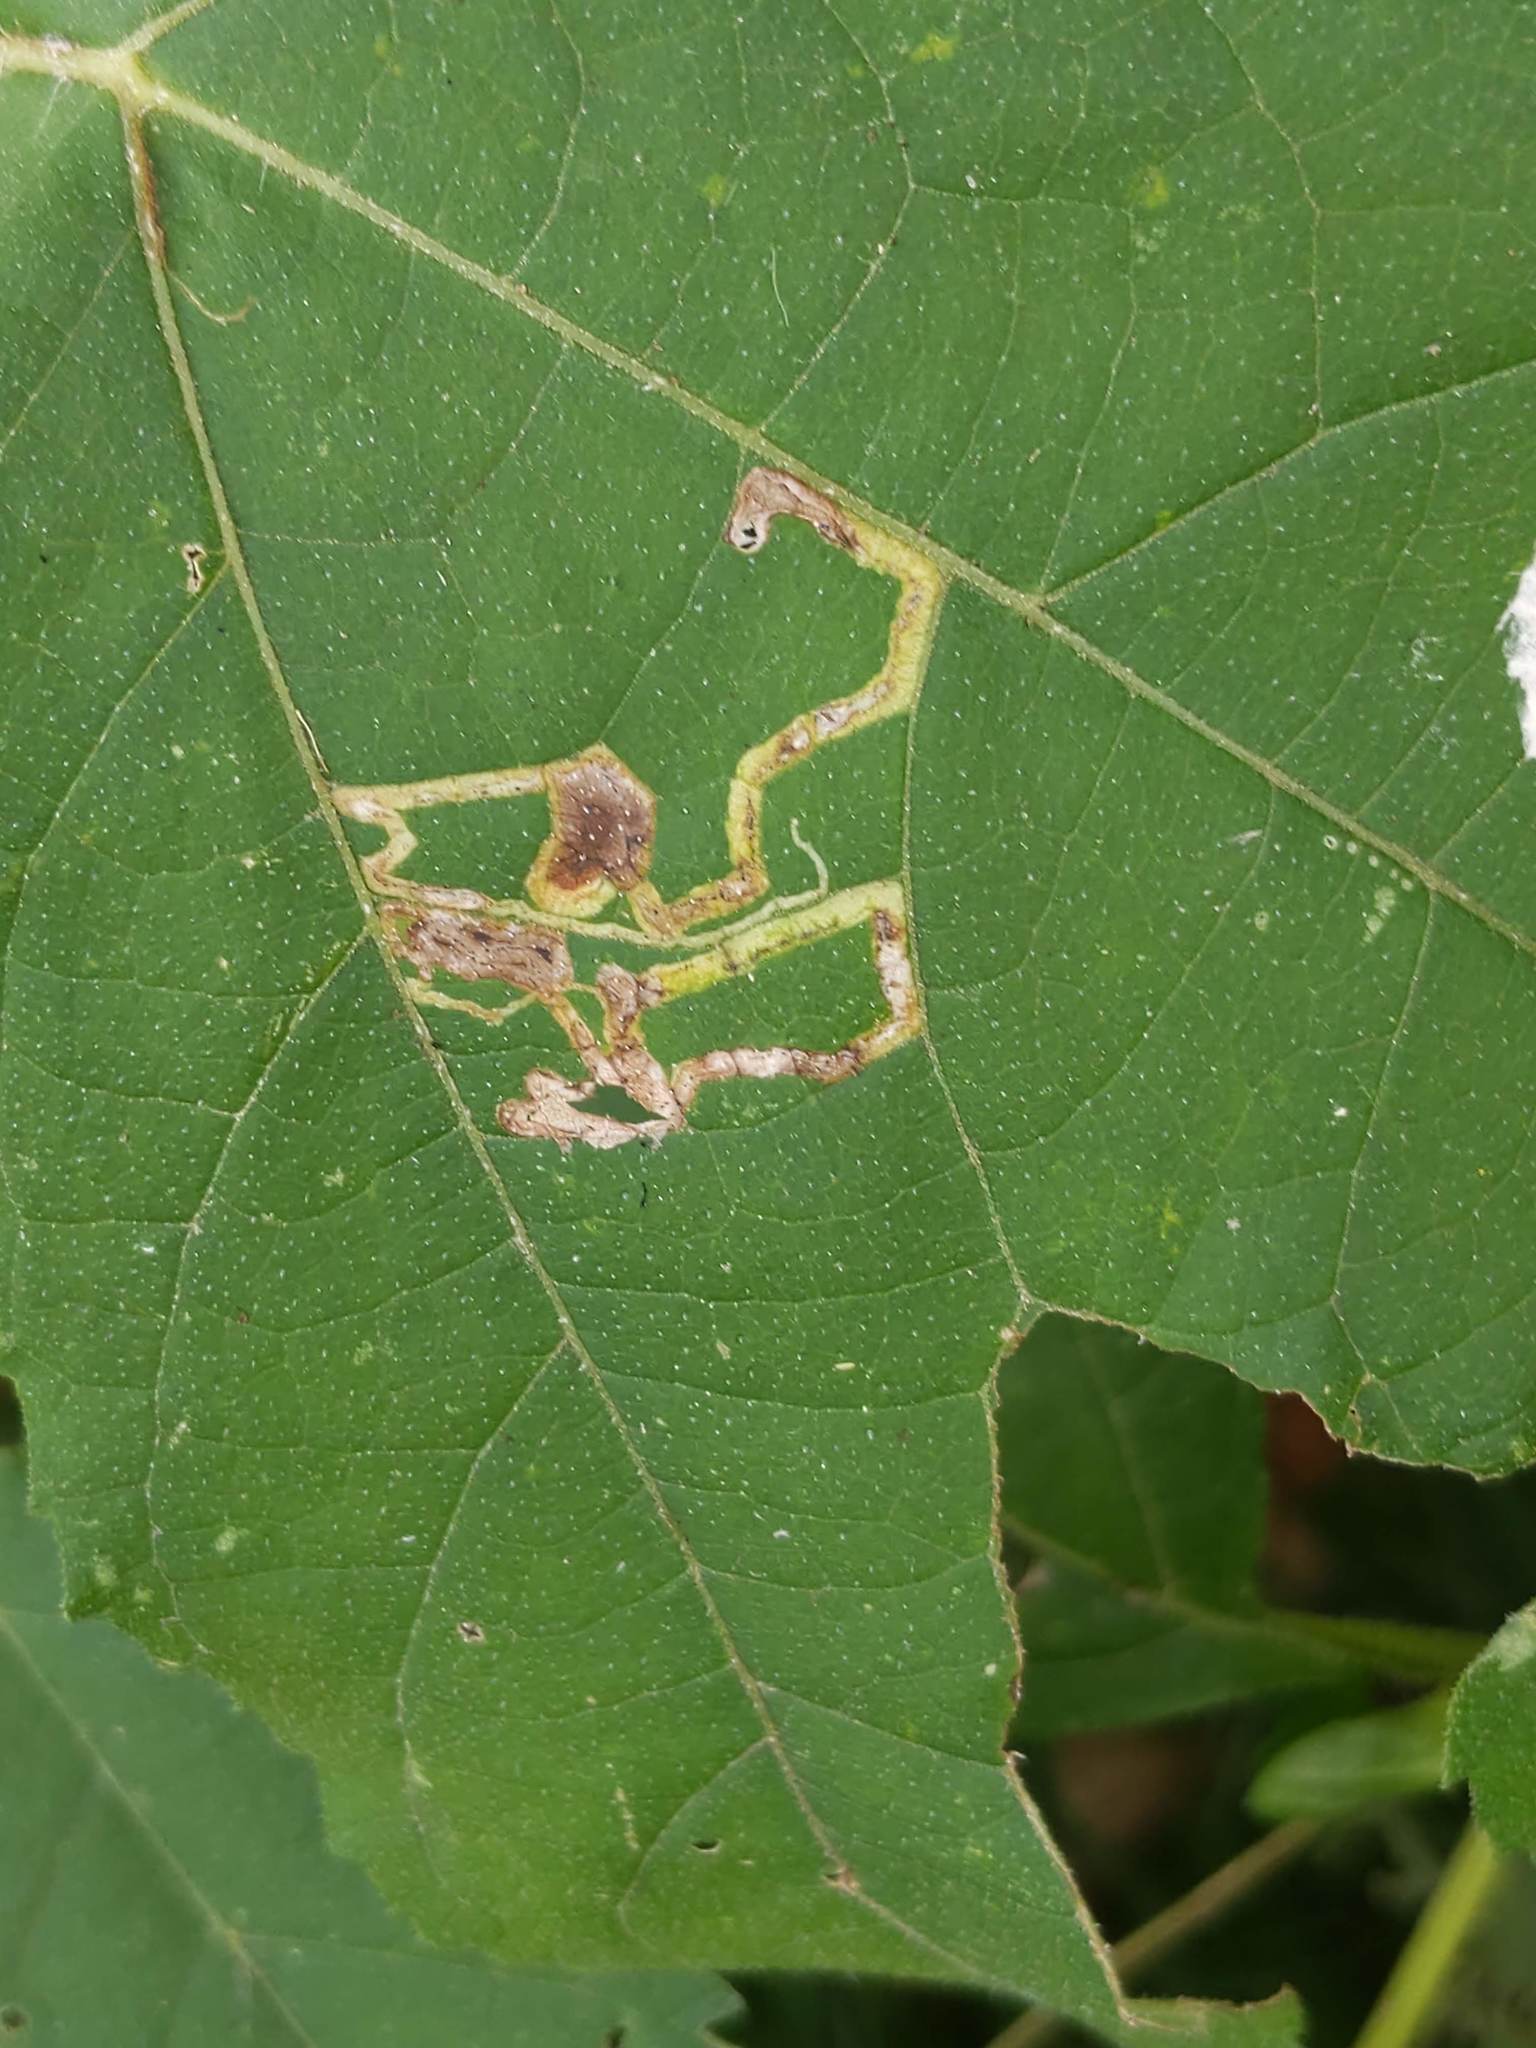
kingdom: Animalia
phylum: Arthropoda
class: Insecta
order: Diptera
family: Agromyzidae
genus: Liriomyza
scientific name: Liriomyza
